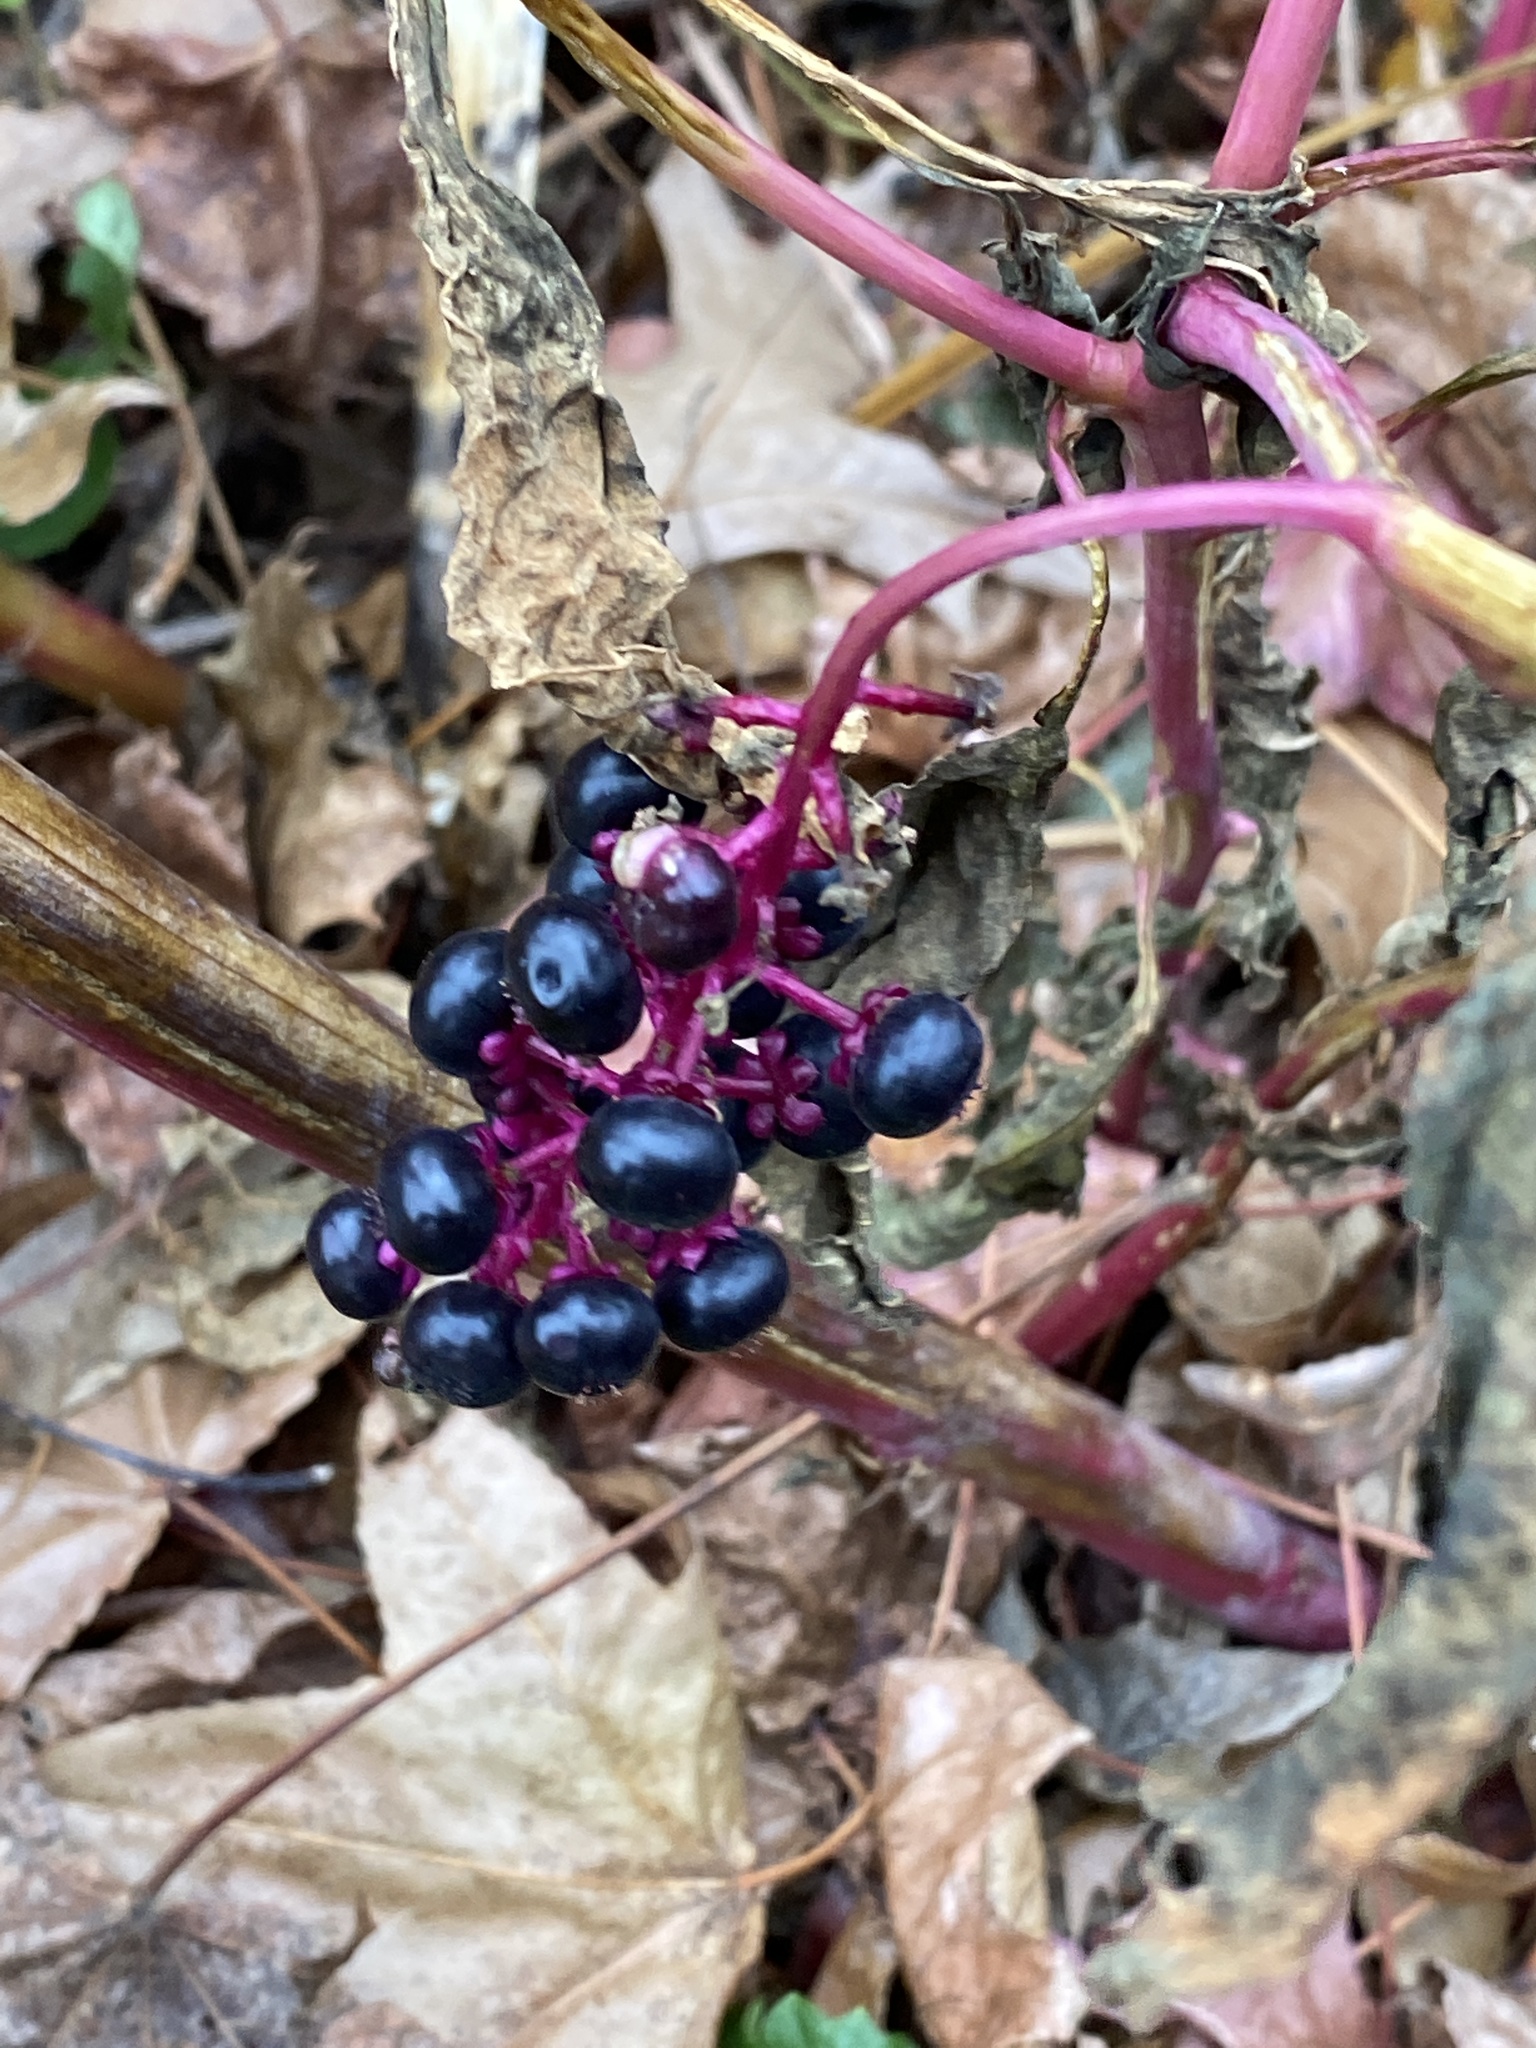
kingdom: Plantae
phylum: Tracheophyta
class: Magnoliopsida
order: Caryophyllales
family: Phytolaccaceae
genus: Phytolacca
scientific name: Phytolacca americana
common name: American pokeweed
